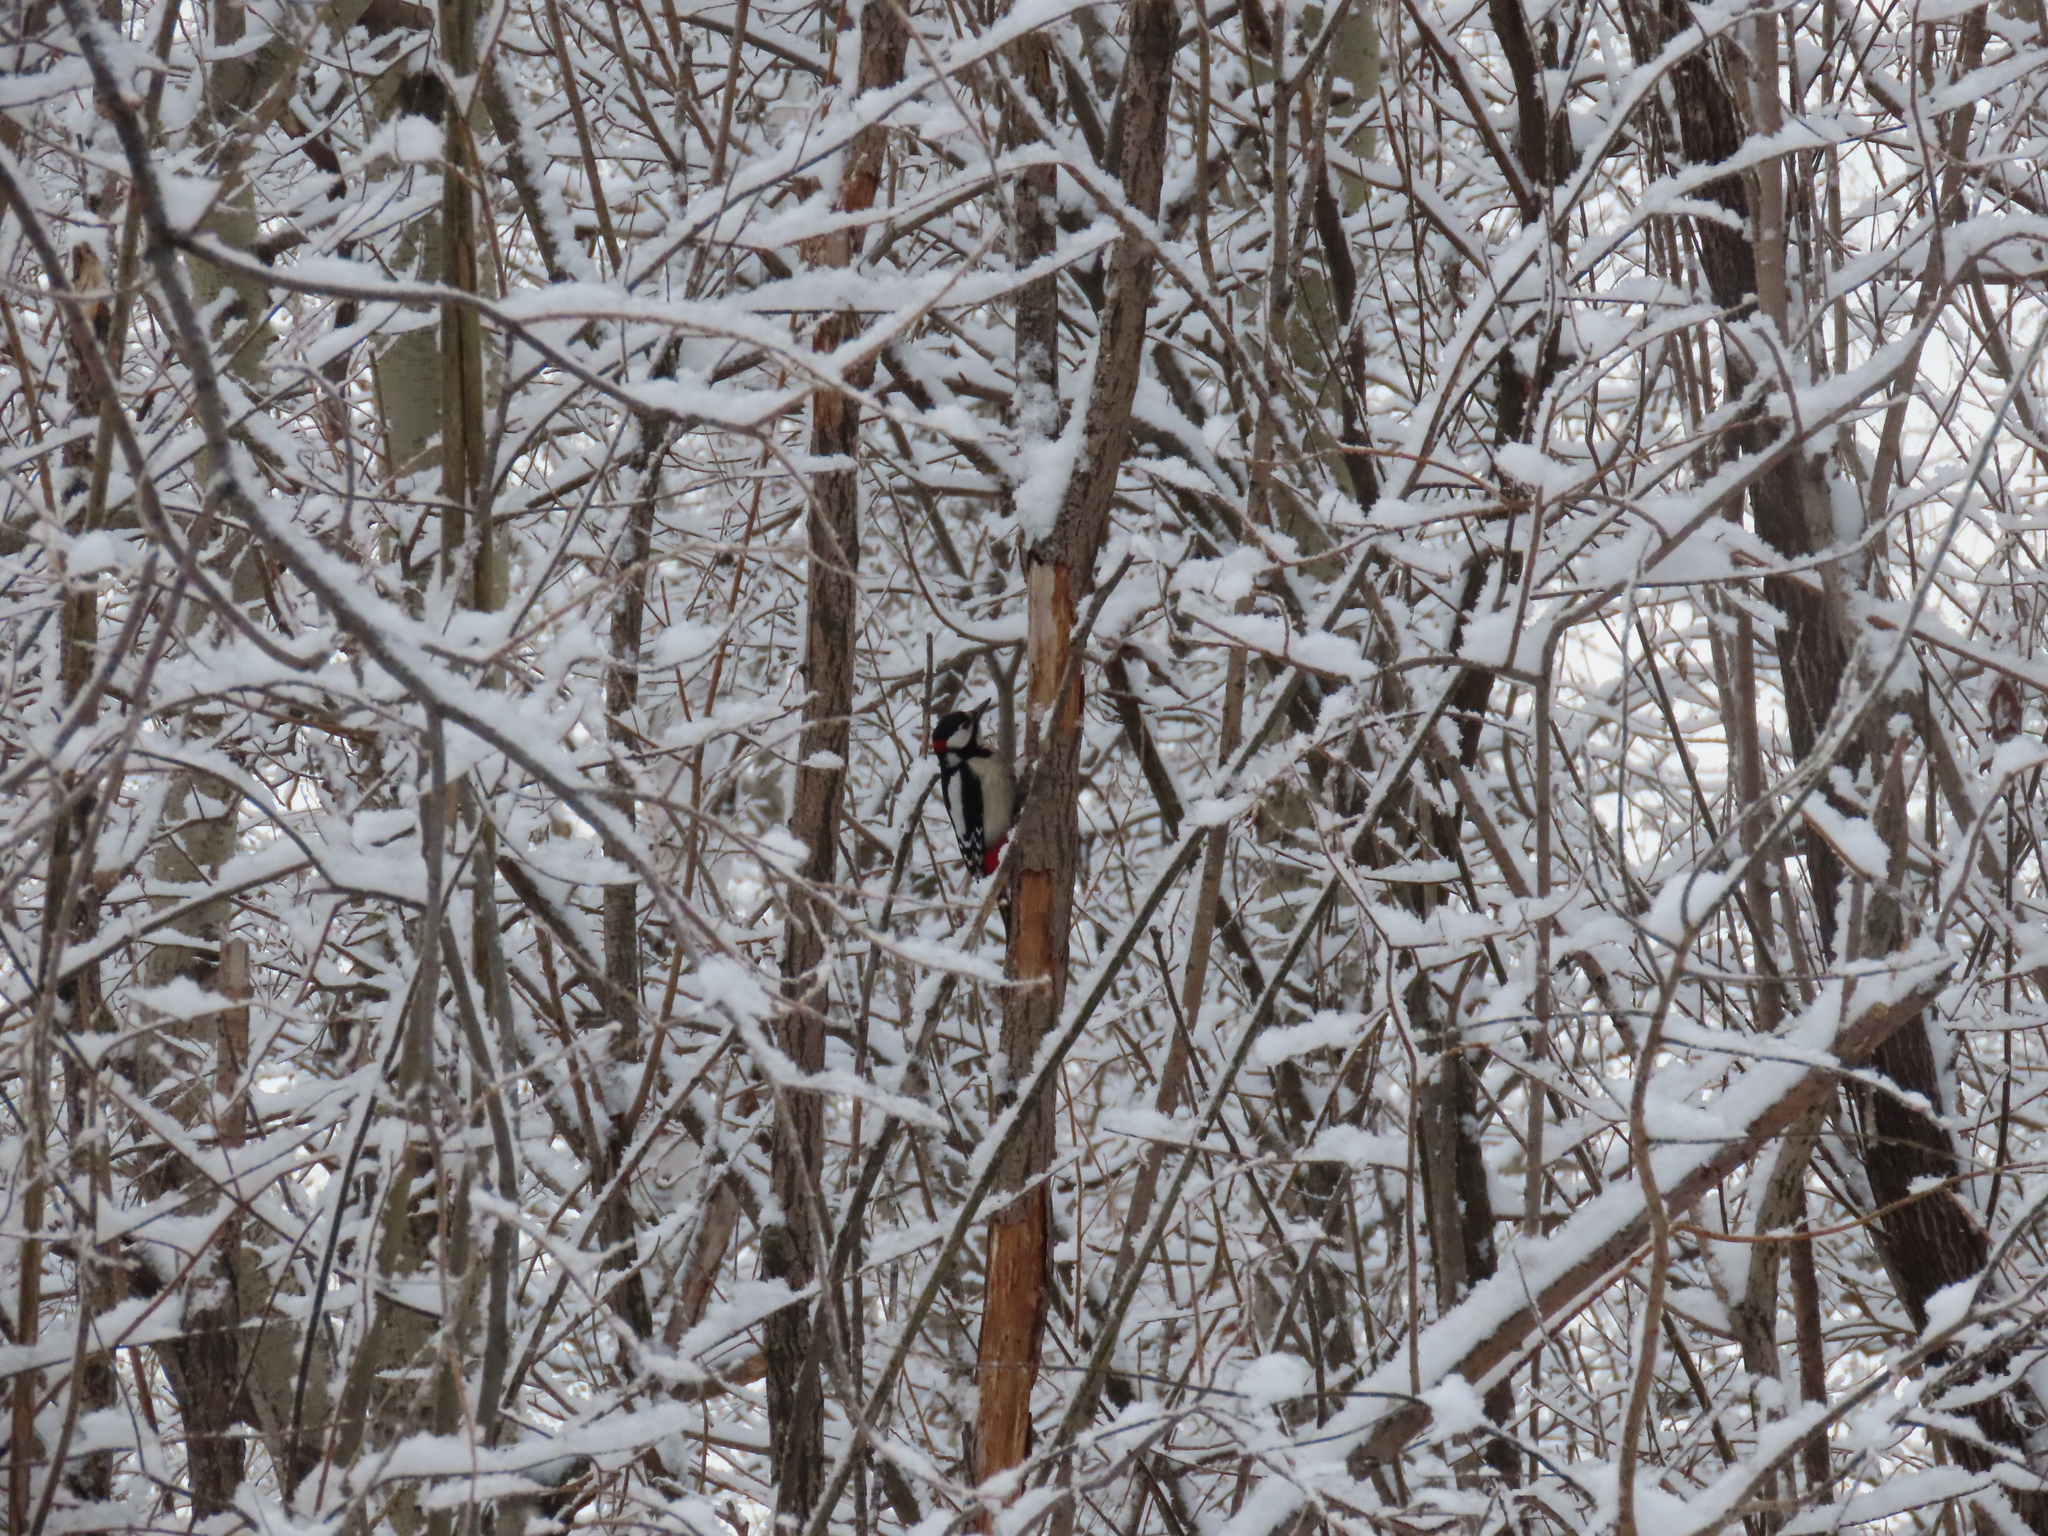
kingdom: Animalia
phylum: Chordata
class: Aves
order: Piciformes
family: Picidae
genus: Dendrocopos
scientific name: Dendrocopos major
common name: Great spotted woodpecker
